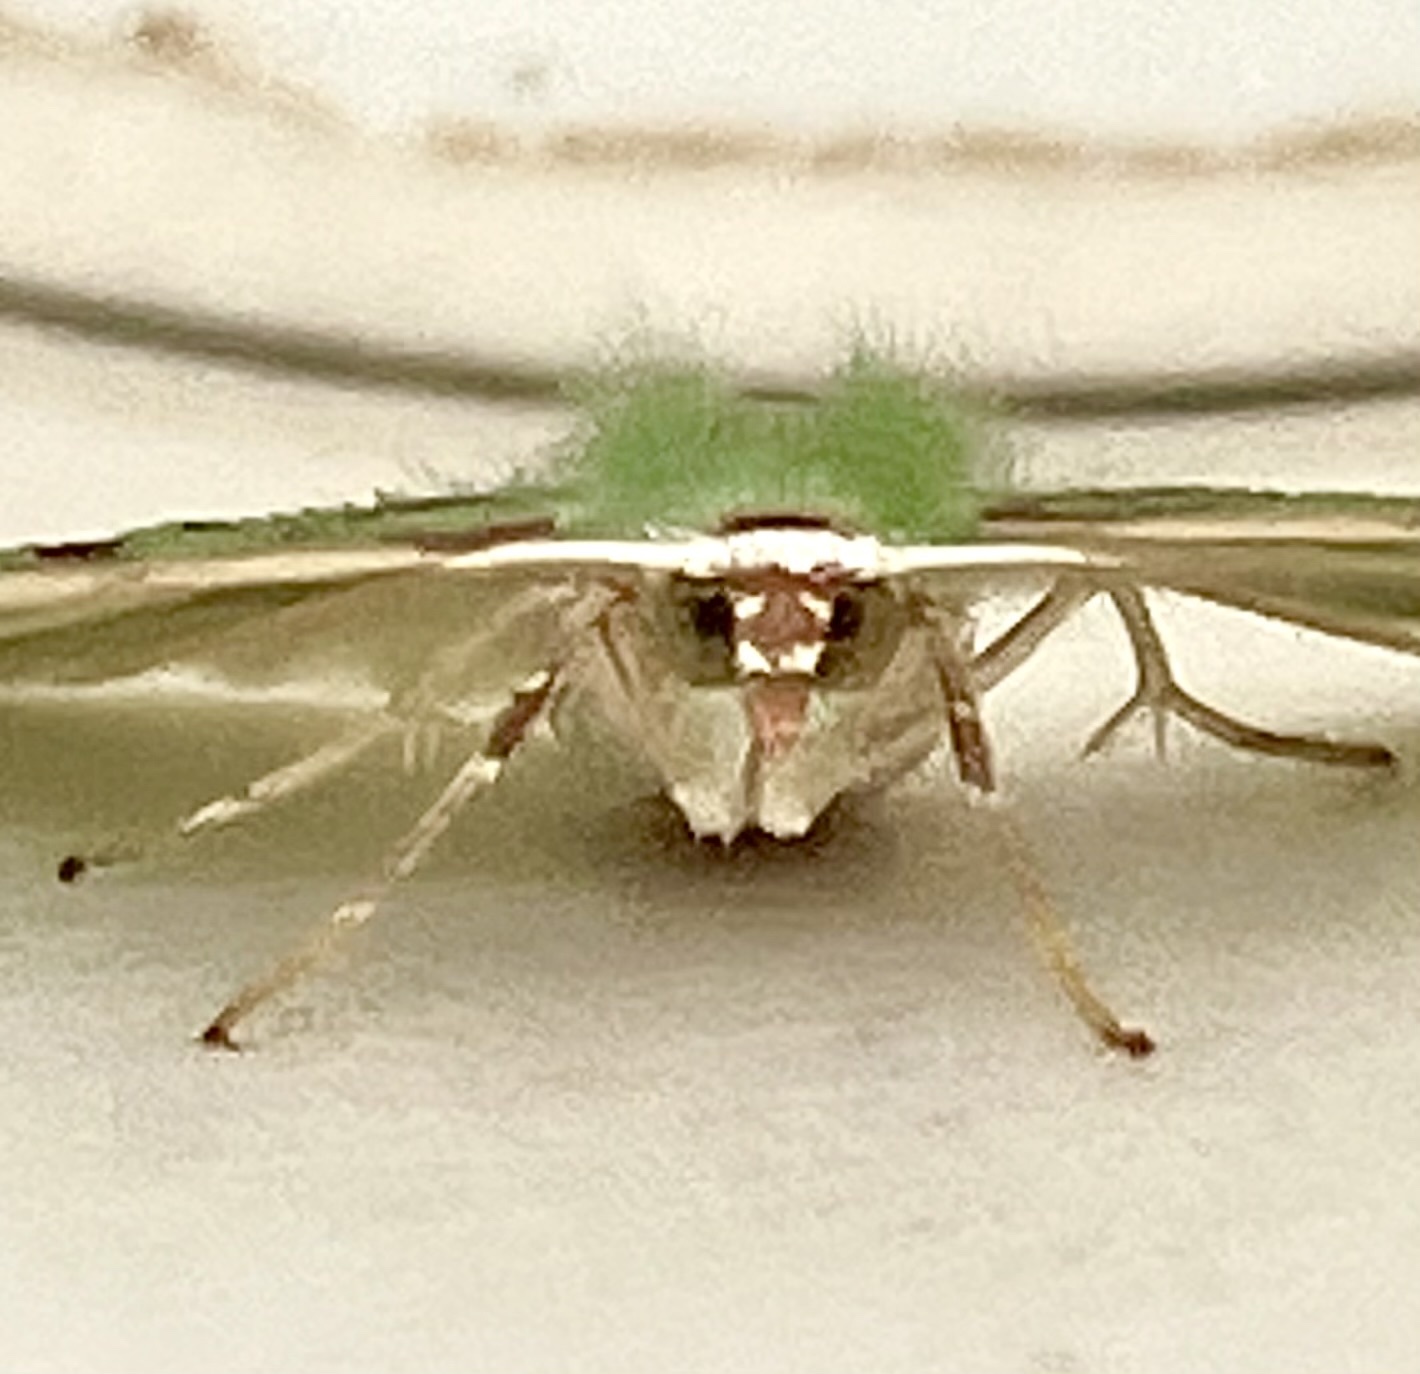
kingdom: Animalia
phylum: Arthropoda
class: Insecta
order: Lepidoptera
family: Geometridae
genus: Nemoria
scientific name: Nemoria lixaria
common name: Red-bordered emerald
